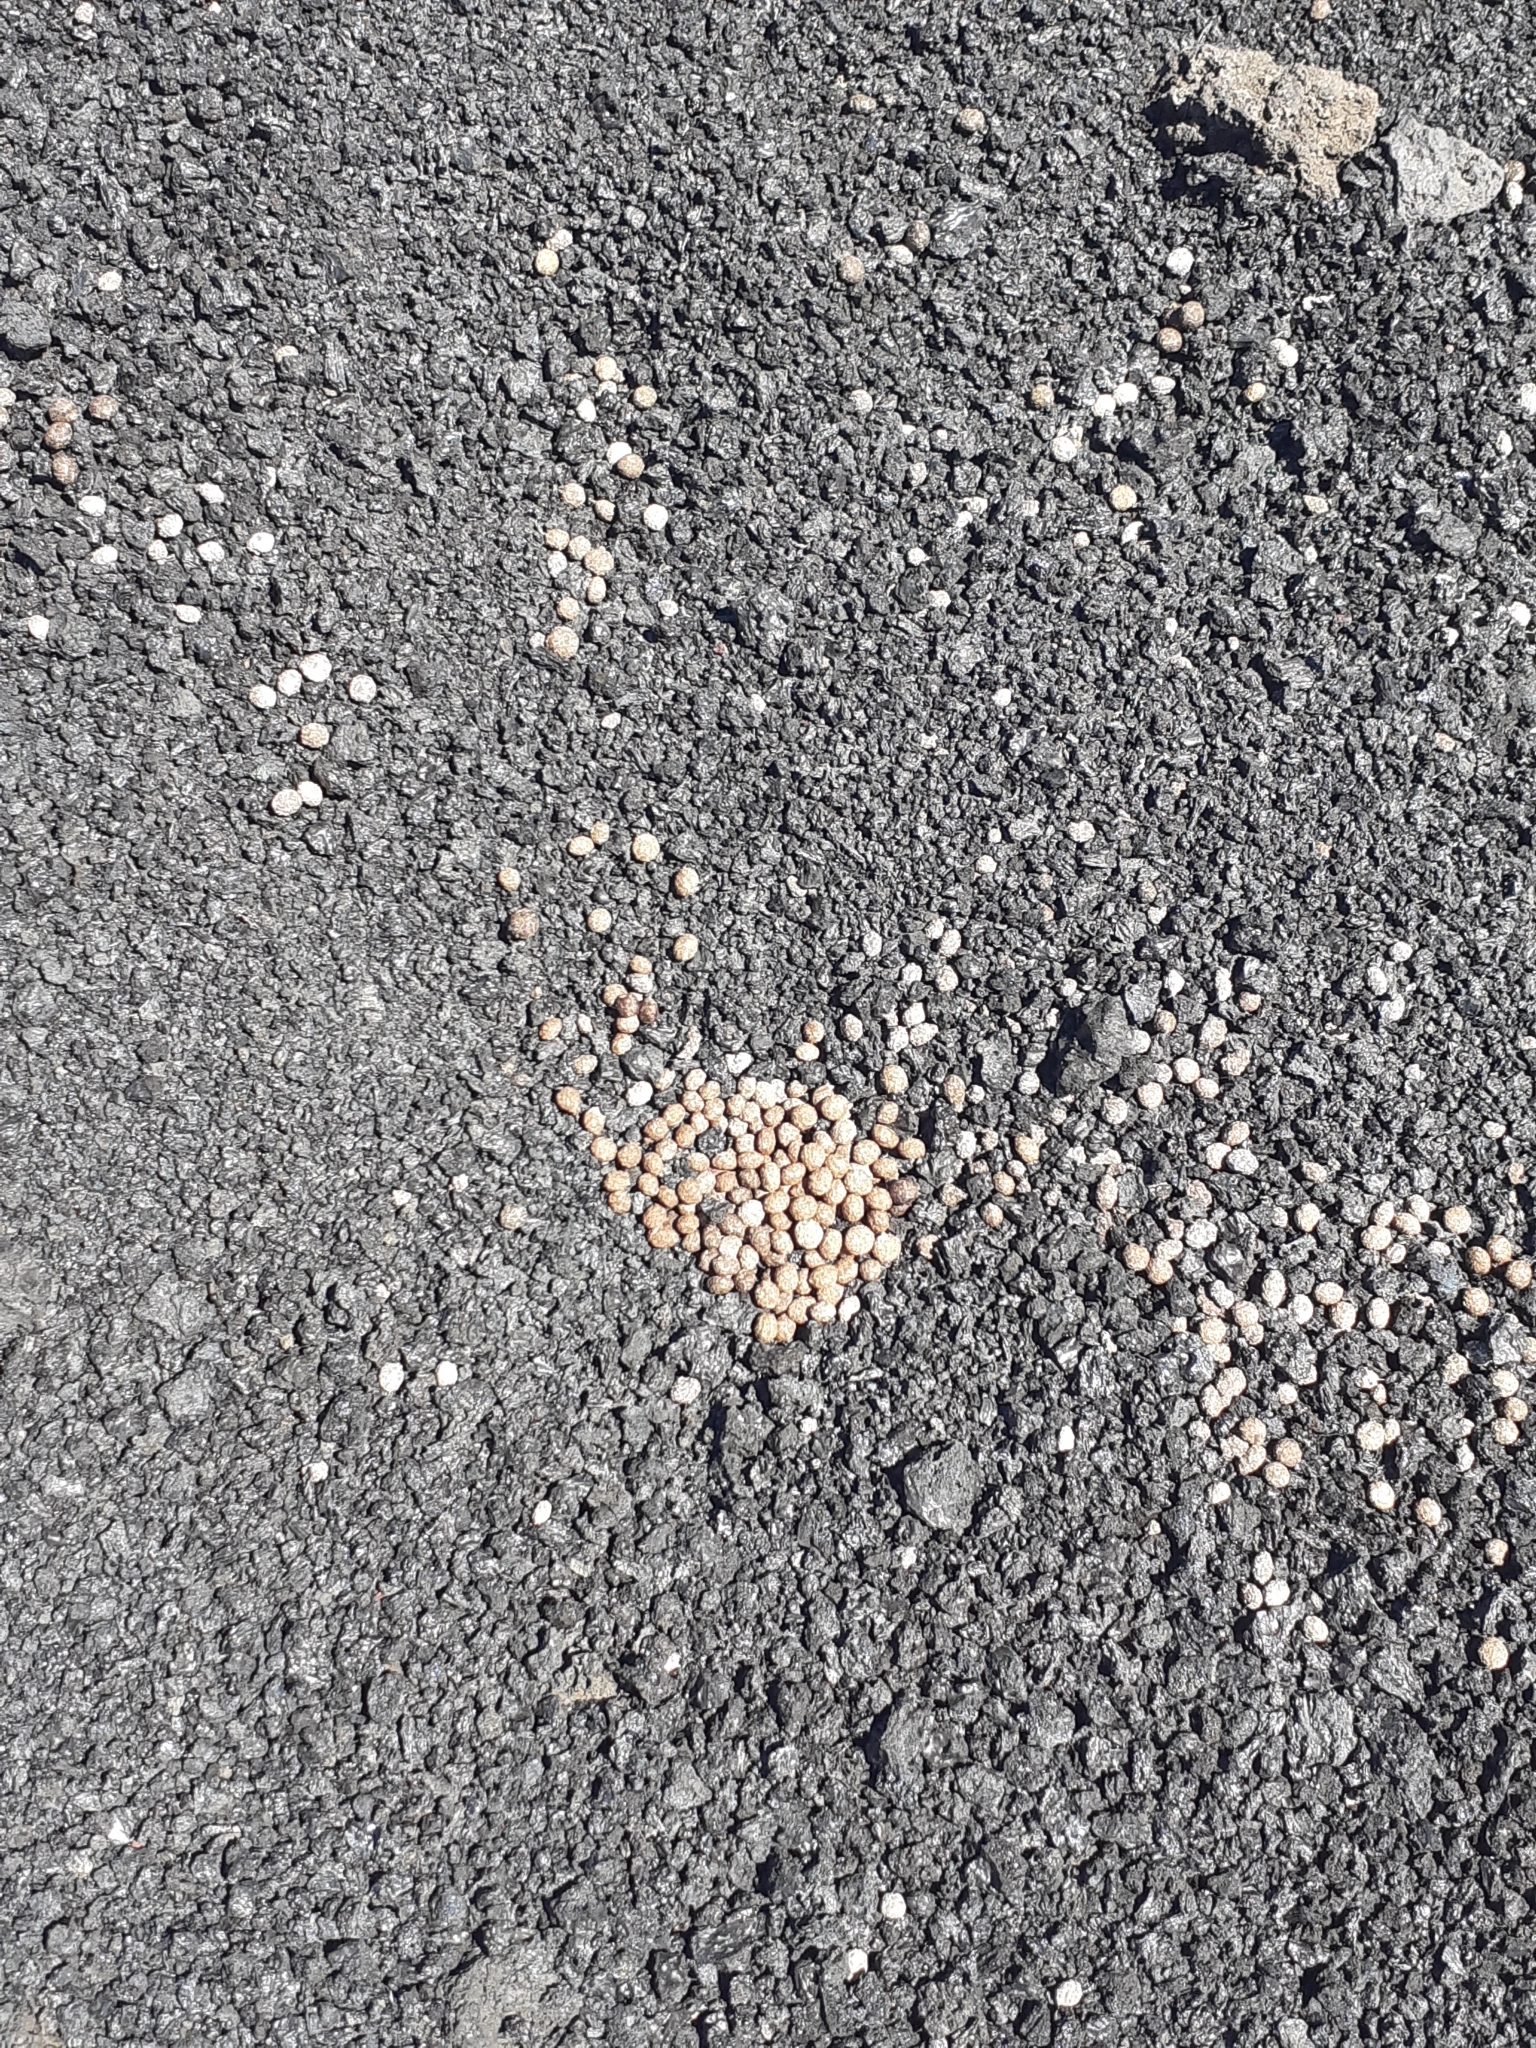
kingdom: Animalia
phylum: Chordata
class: Mammalia
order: Lagomorpha
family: Leporidae
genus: Oryctolagus
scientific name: Oryctolagus cuniculus
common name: European rabbit
